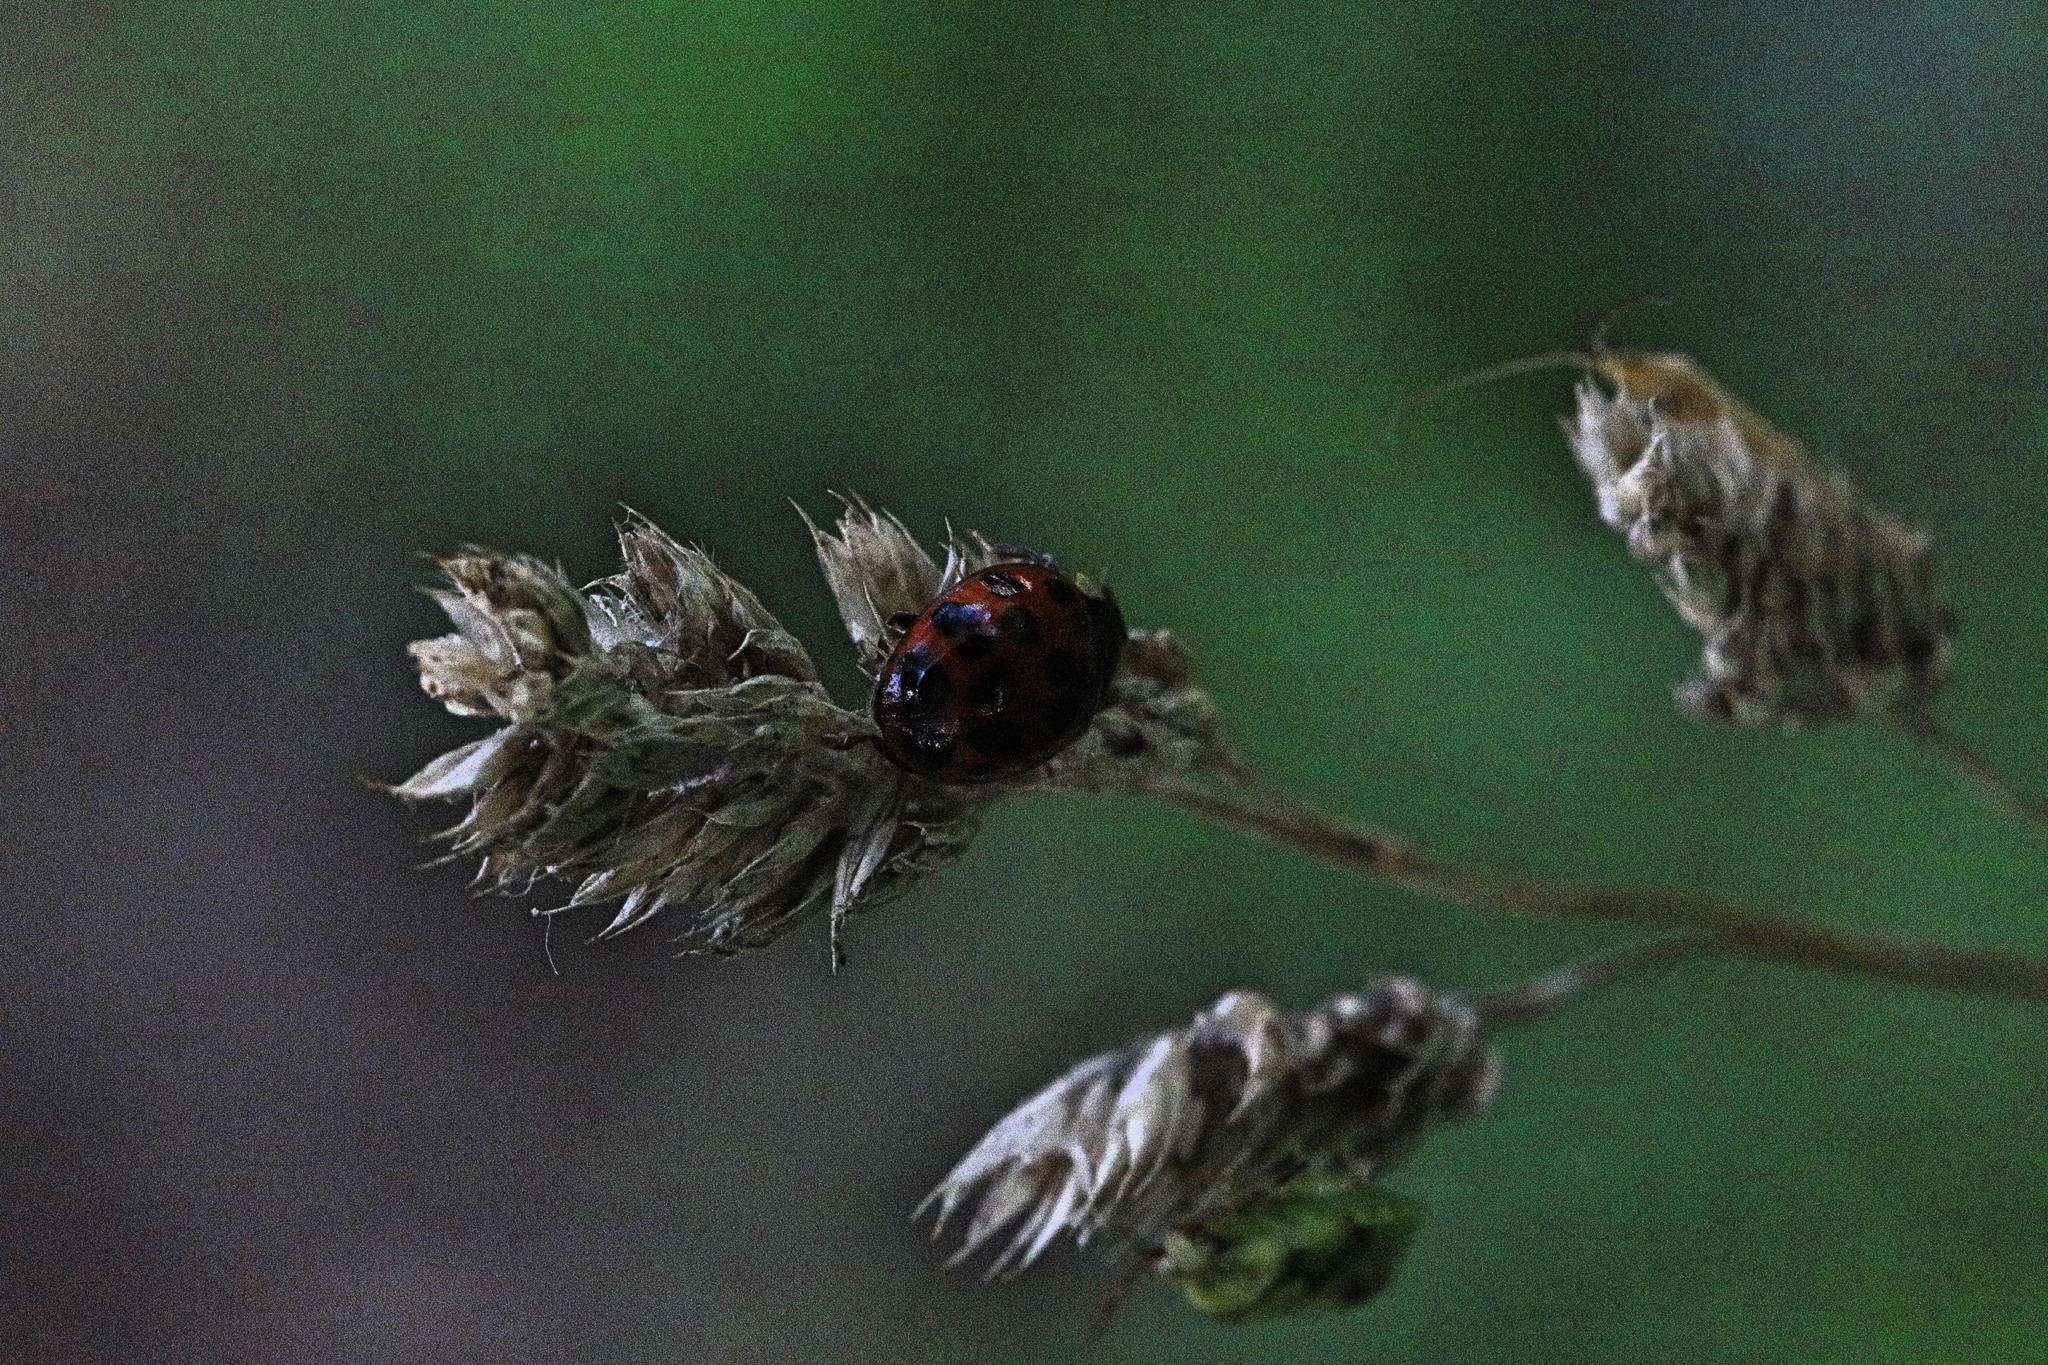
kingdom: Animalia
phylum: Arthropoda
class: Insecta
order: Coleoptera
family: Coccinellidae
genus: Harmonia
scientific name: Harmonia axyridis
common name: Harlequin ladybird
